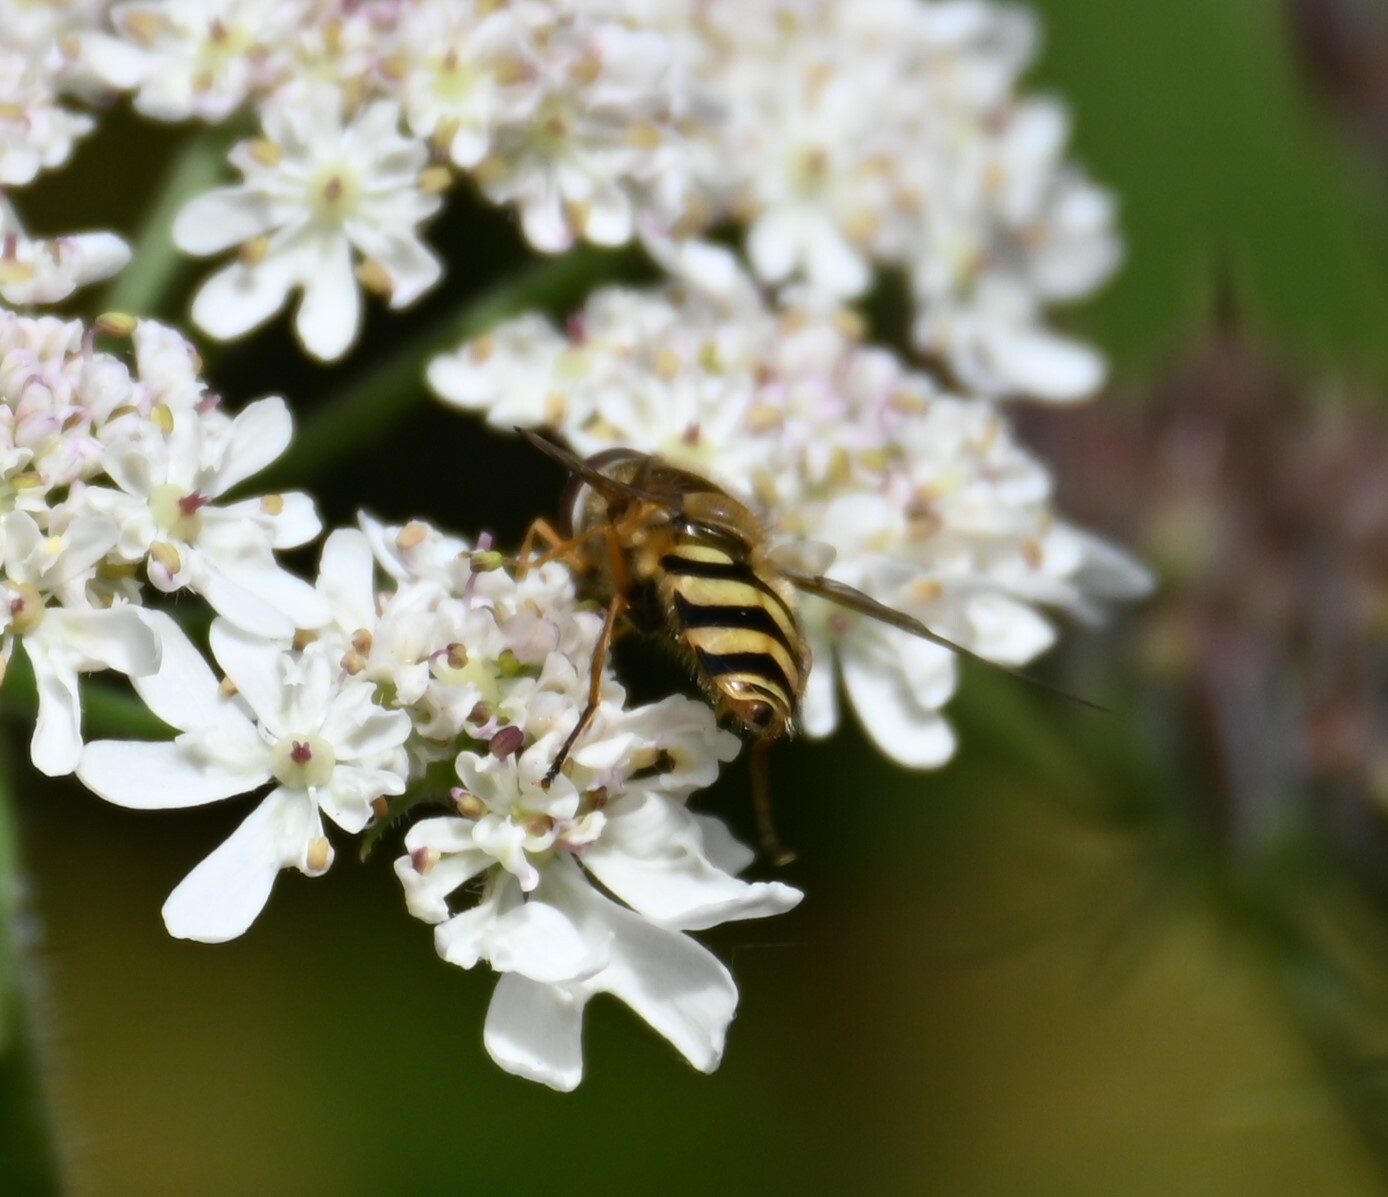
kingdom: Animalia
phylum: Arthropoda
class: Insecta
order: Diptera
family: Syrphidae
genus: Syrphus
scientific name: Syrphus
